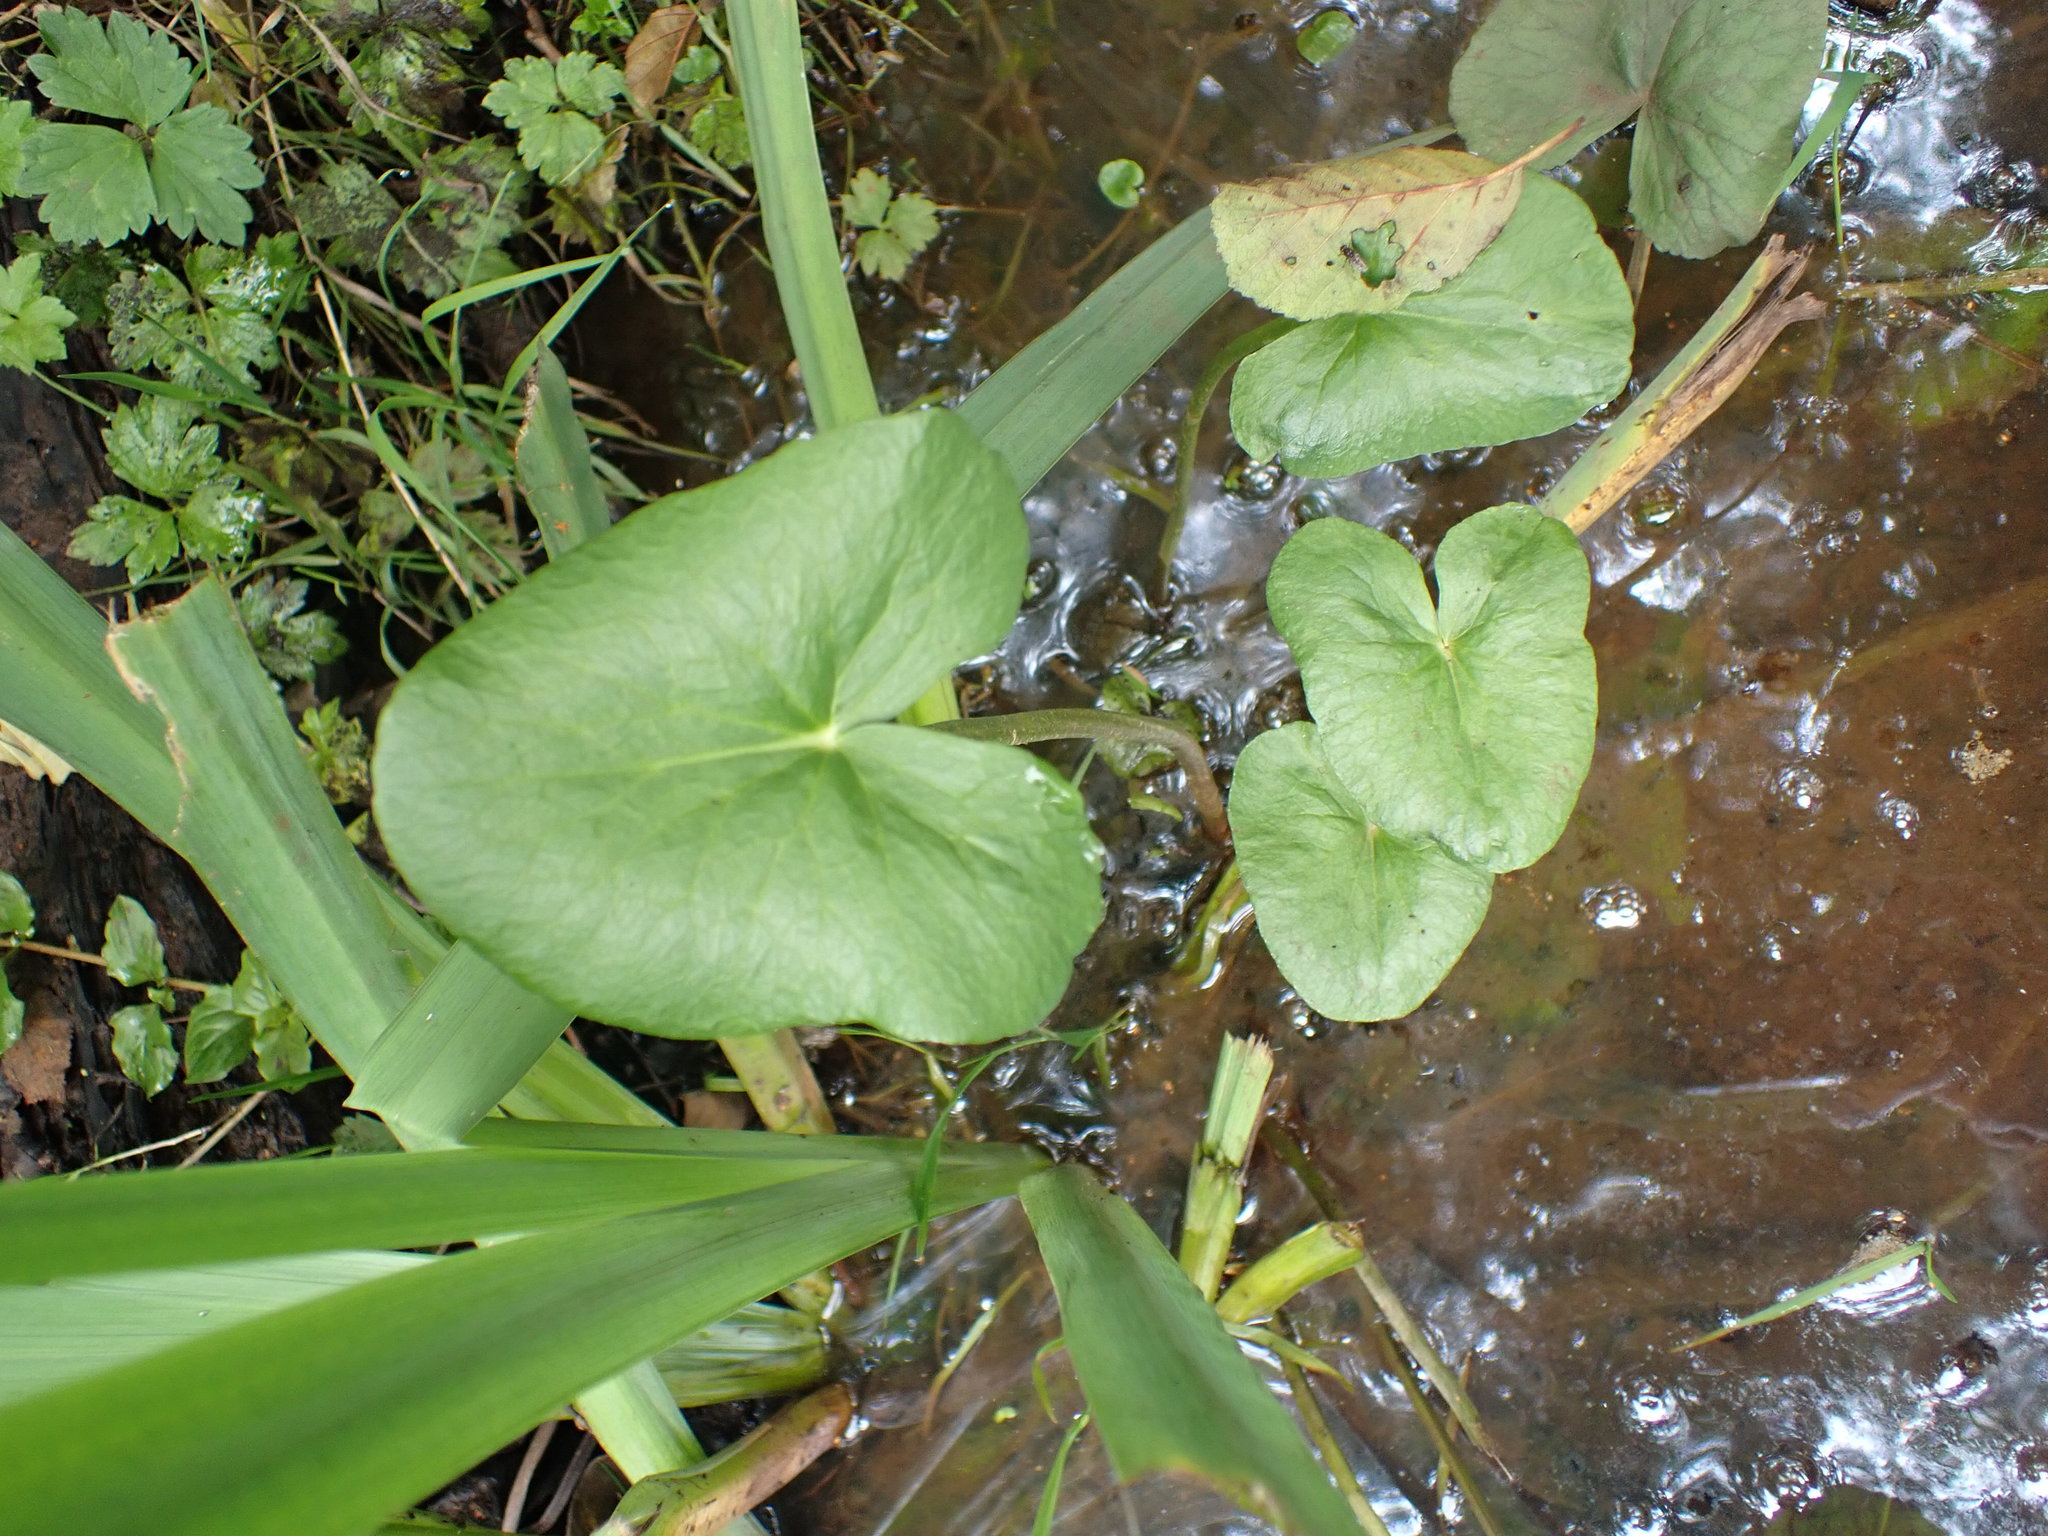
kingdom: Plantae
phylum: Tracheophyta
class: Magnoliopsida
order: Ranunculales
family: Ranunculaceae
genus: Caltha
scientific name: Caltha palustris
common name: Marsh marigold
